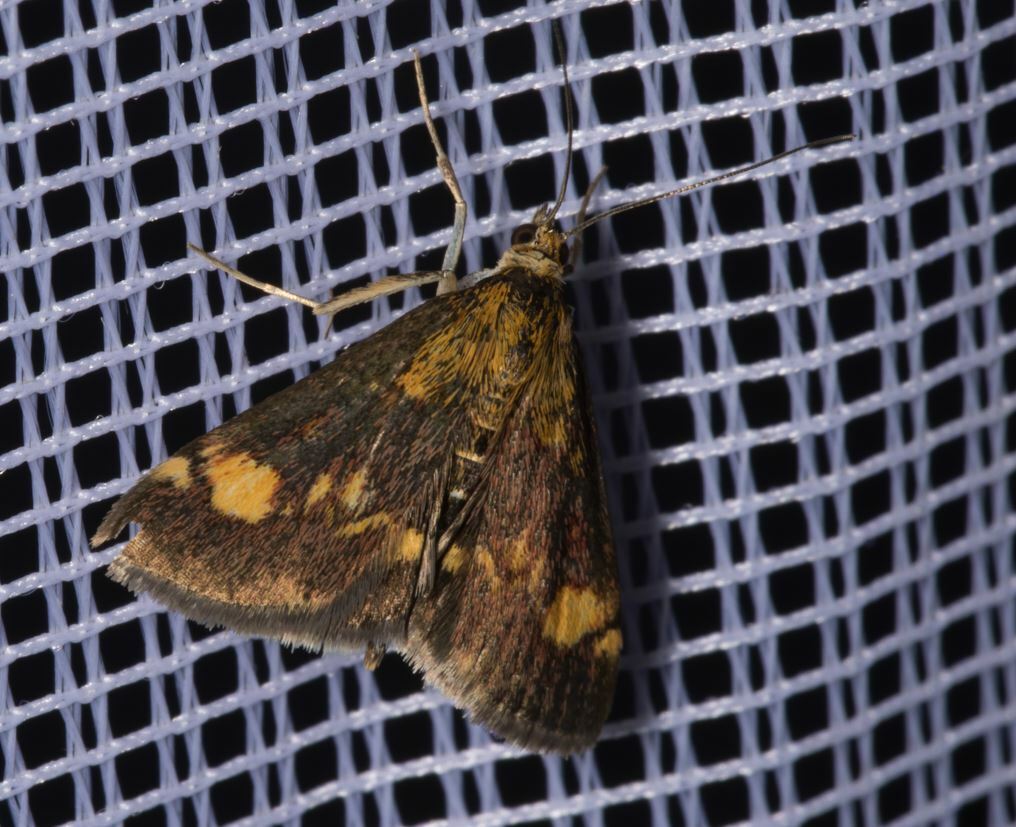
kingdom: Animalia
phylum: Arthropoda
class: Insecta
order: Lepidoptera
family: Crambidae
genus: Pyrausta
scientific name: Pyrausta aurata
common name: Small purple & gold
